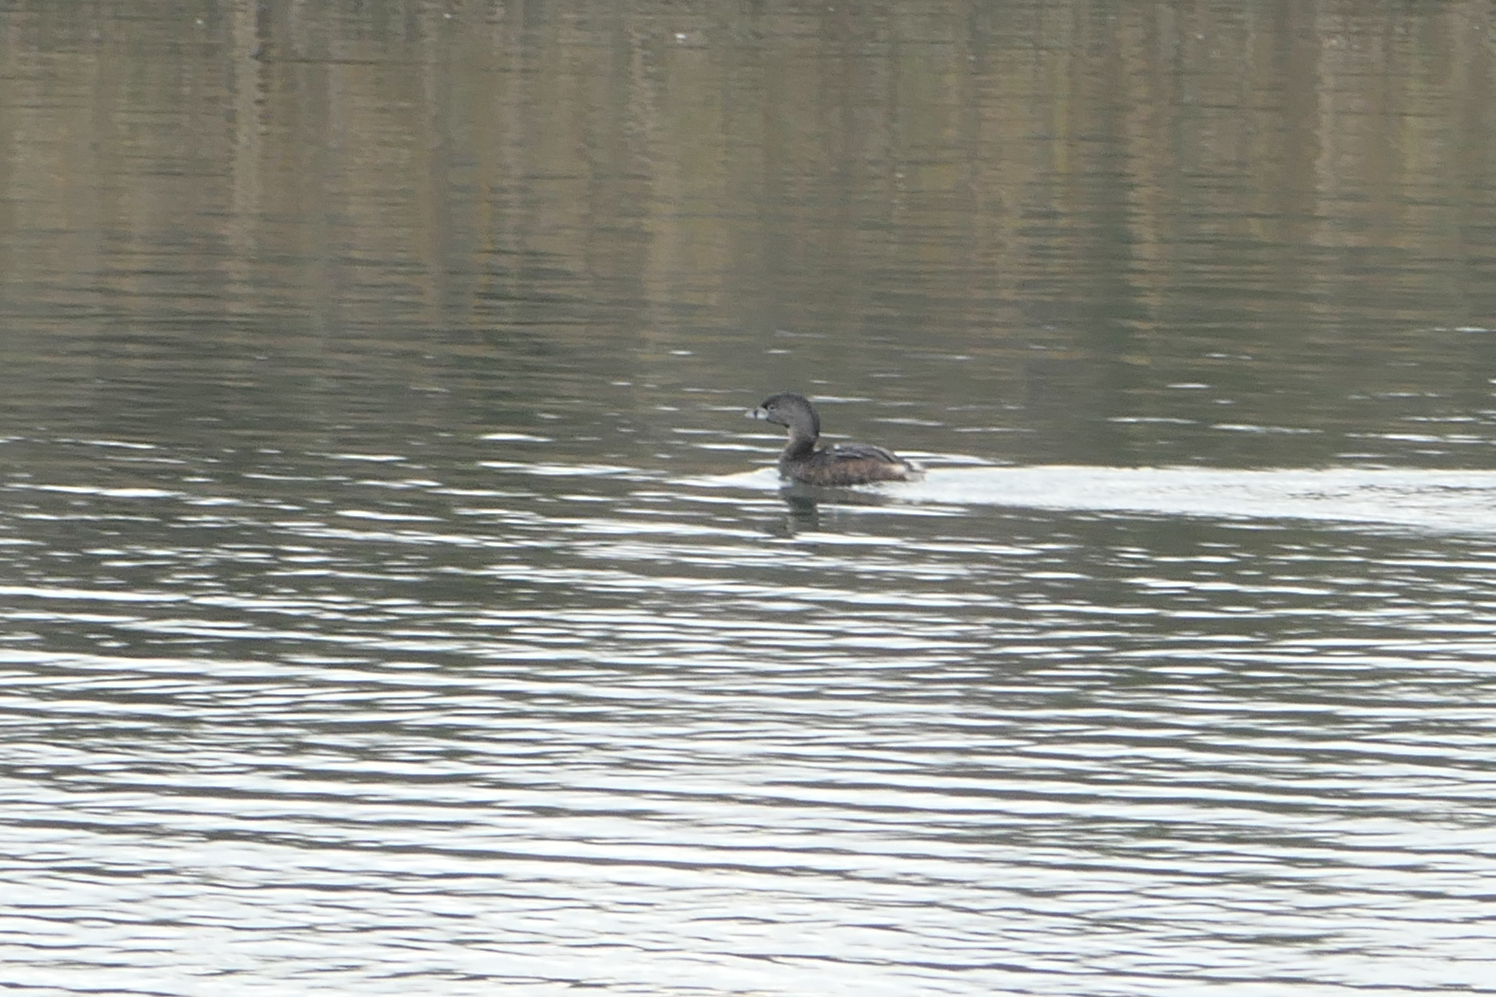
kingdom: Animalia
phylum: Chordata
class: Aves
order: Podicipediformes
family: Podicipedidae
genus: Podilymbus
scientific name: Podilymbus podiceps
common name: Pied-billed grebe
